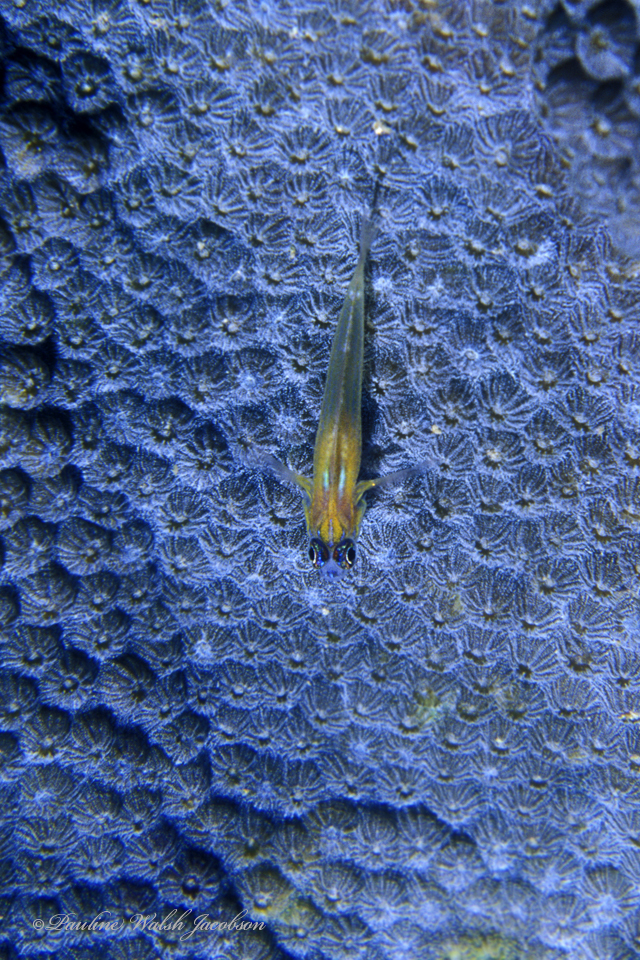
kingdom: Animalia
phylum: Chordata
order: Perciformes
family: Gobiidae
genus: Coryphopterus
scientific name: Coryphopterus lipernes
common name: Peppermint goby
